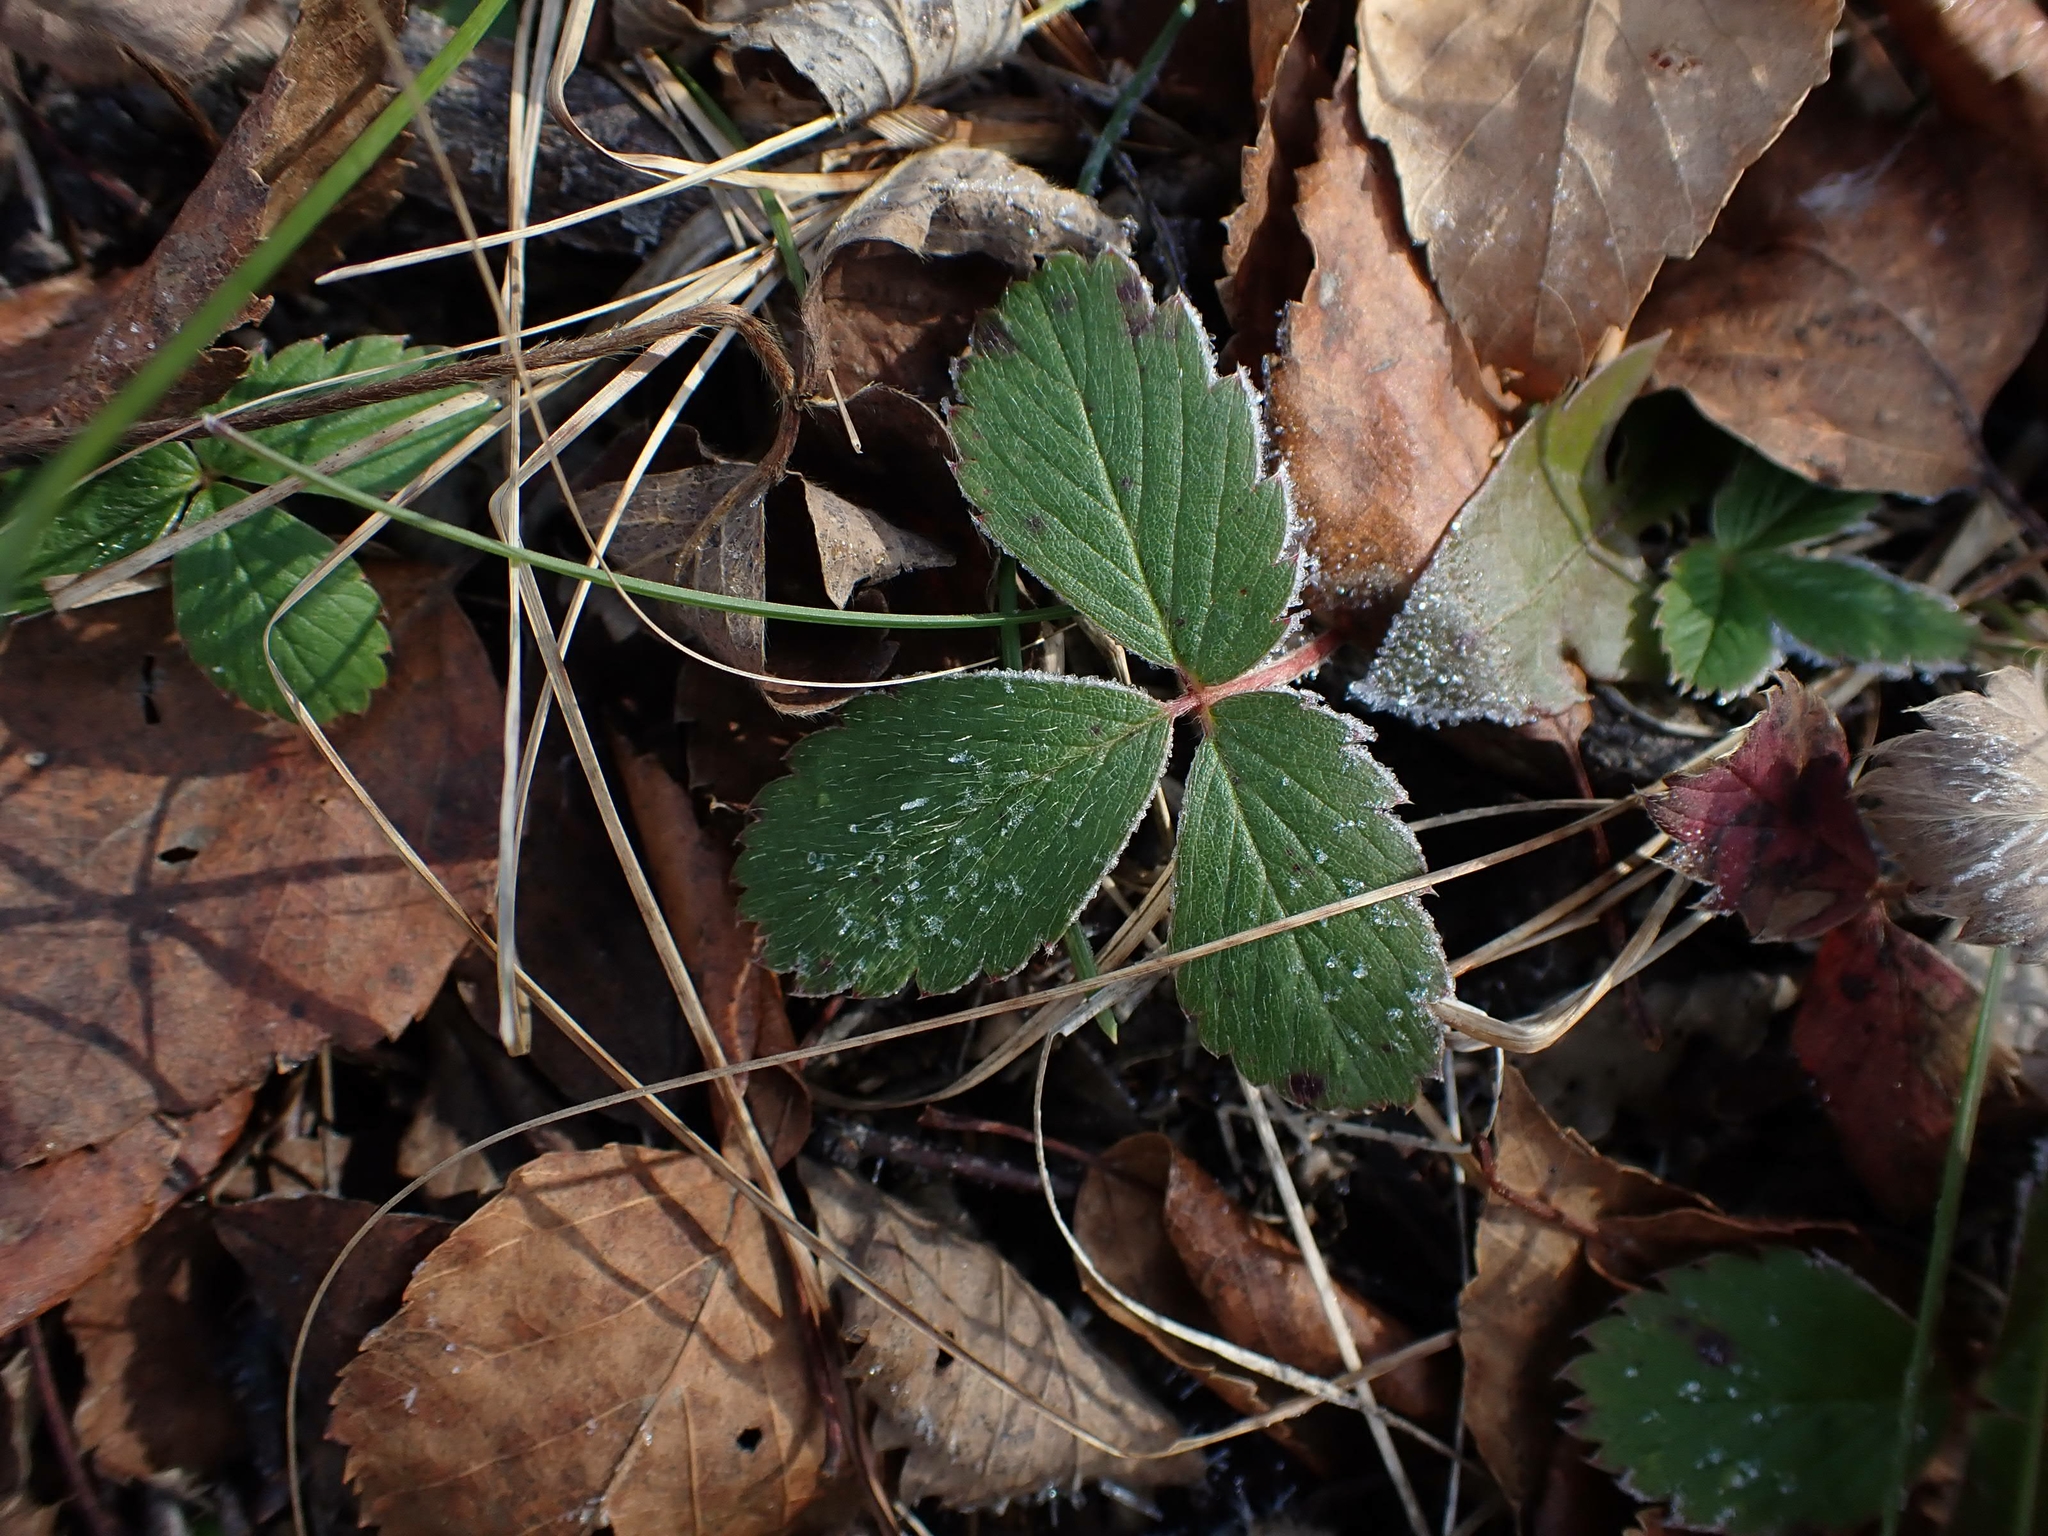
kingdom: Plantae
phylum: Tracheophyta
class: Magnoliopsida
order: Rosales
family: Rosaceae
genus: Fragaria
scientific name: Fragaria virginiana
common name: Thickleaved wild strawberry
